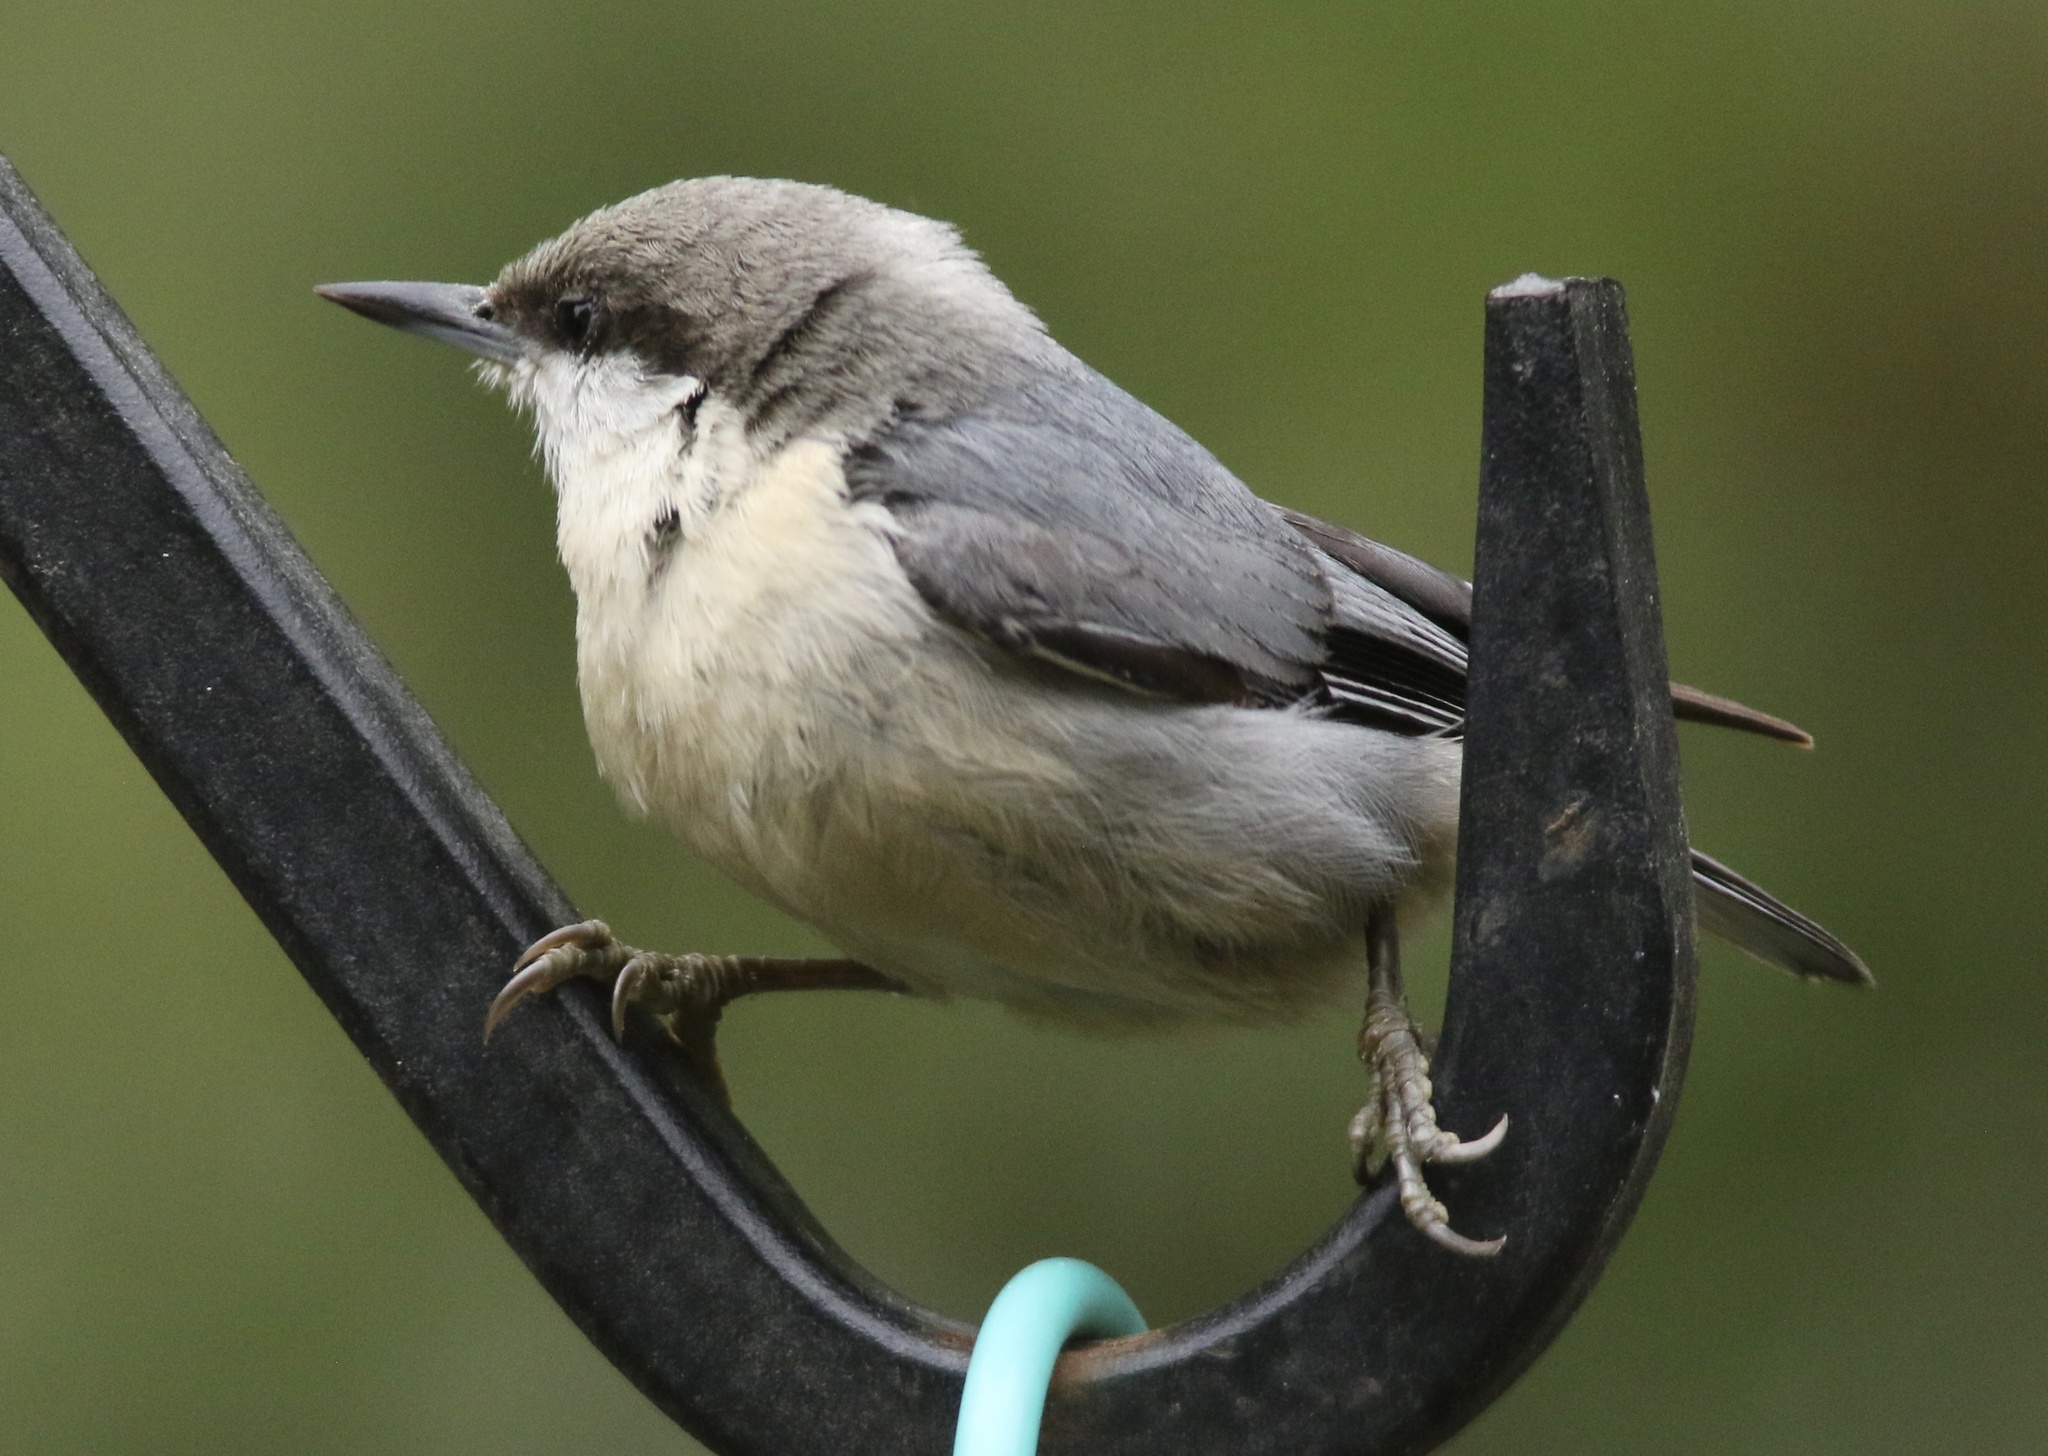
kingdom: Animalia
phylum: Chordata
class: Aves
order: Passeriformes
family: Sittidae
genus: Sitta
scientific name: Sitta pygmaea
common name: Pygmy nuthatch
